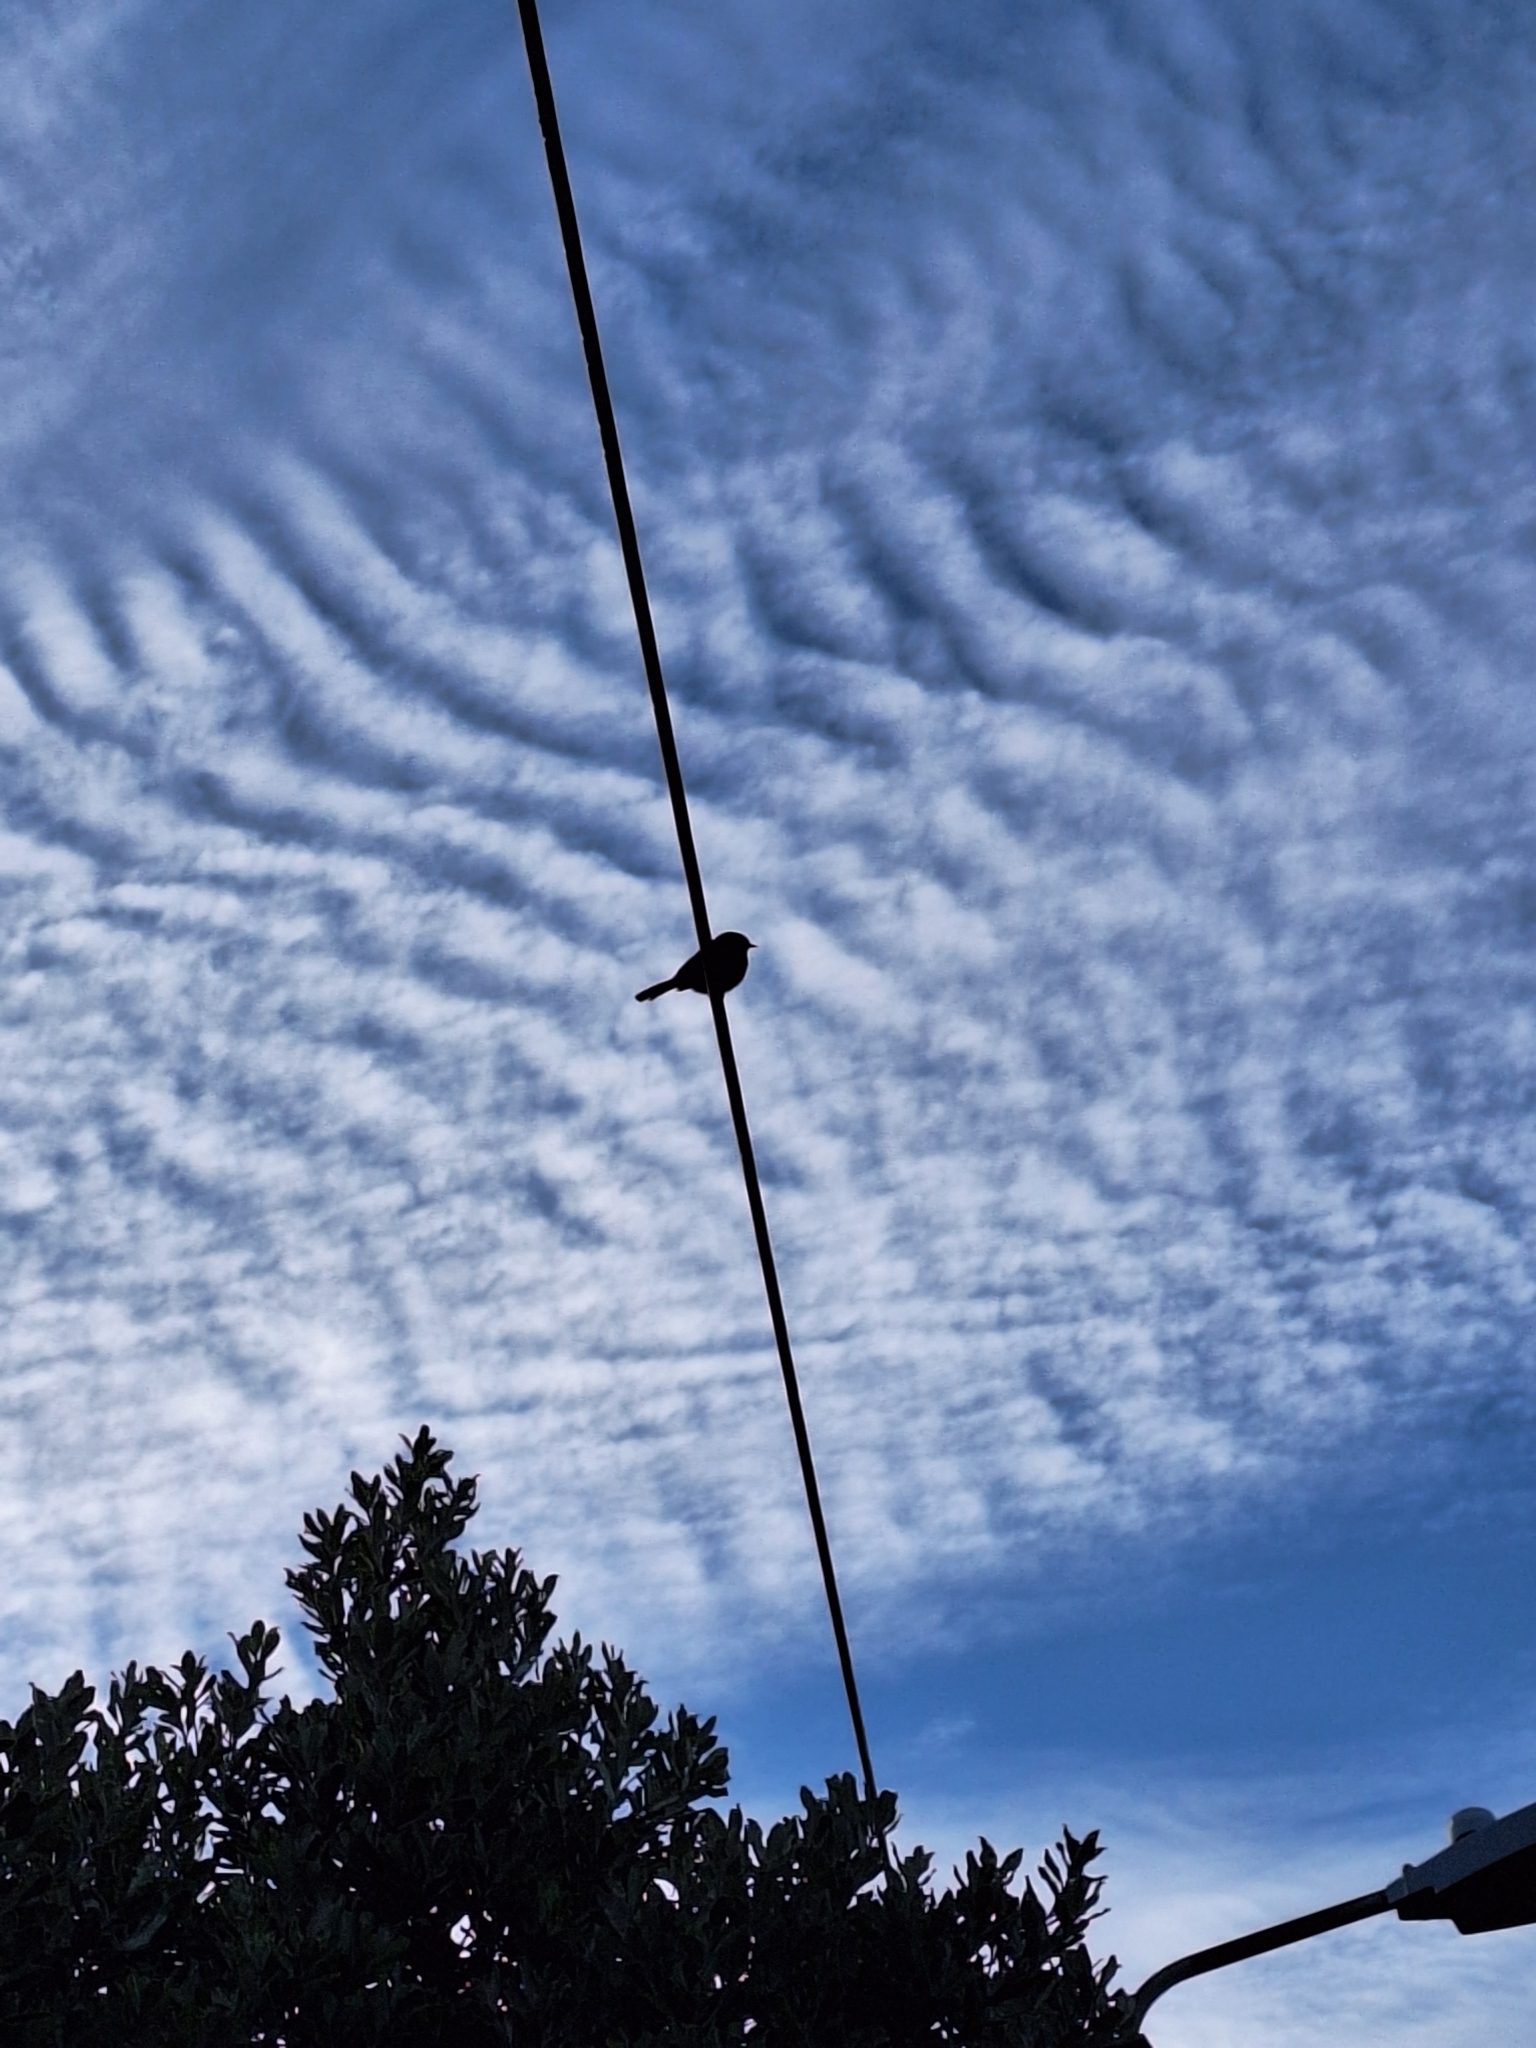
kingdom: Animalia
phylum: Chordata
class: Aves
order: Passeriformes
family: Prunellidae
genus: Prunella
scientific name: Prunella modularis
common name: Dunnock
